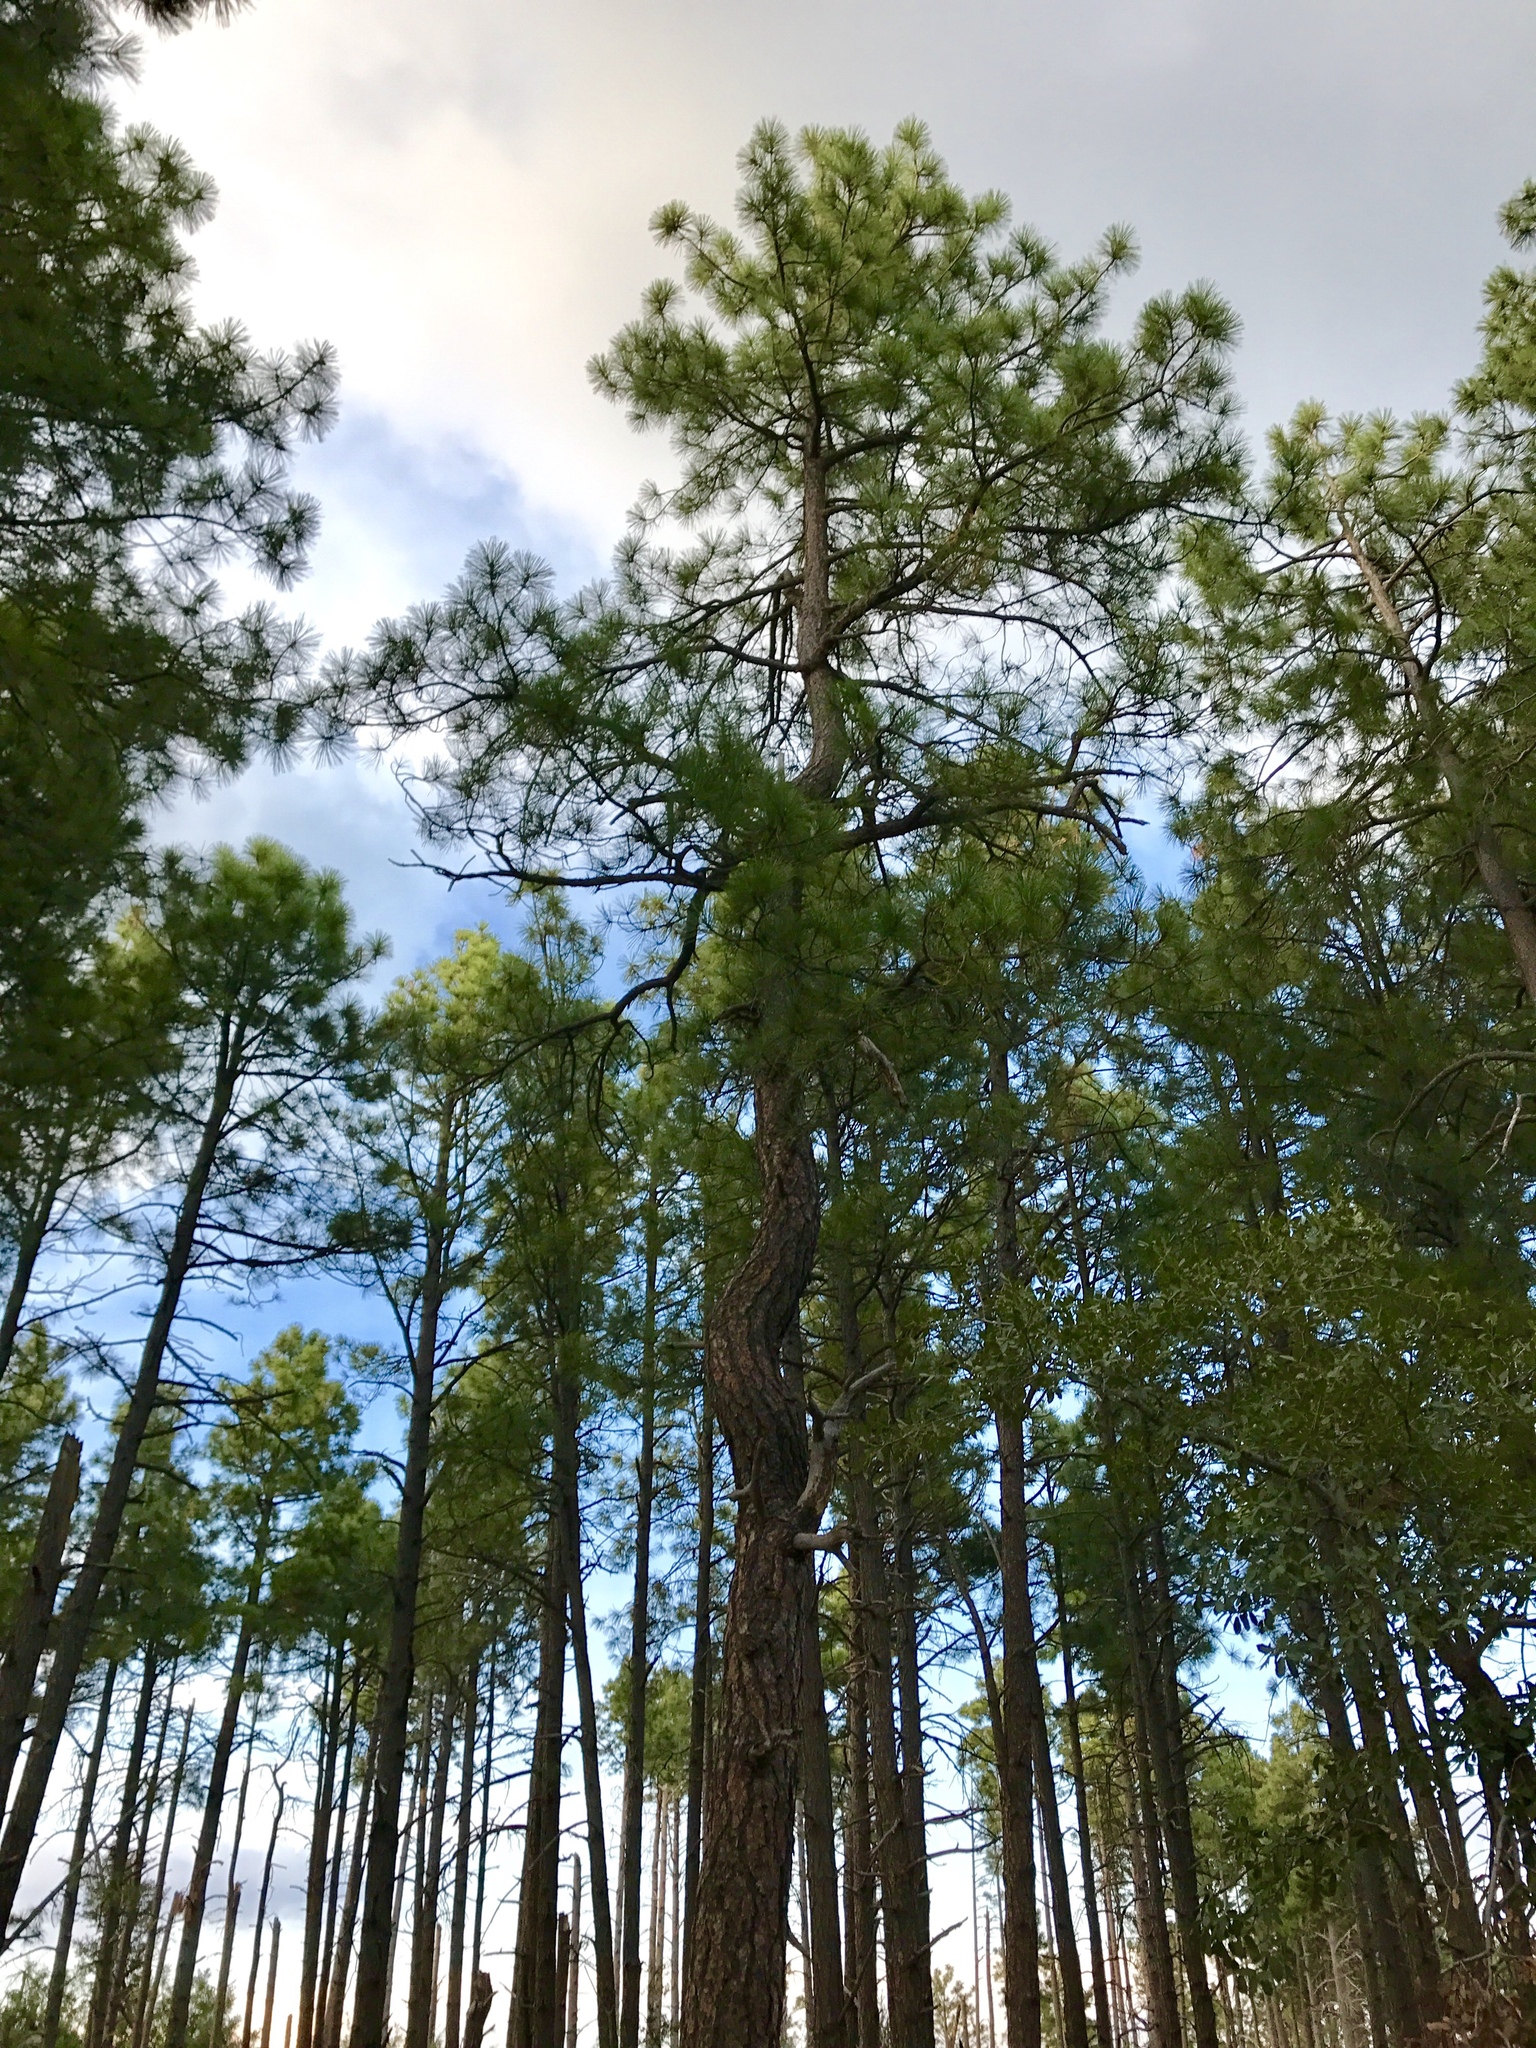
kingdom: Plantae
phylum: Tracheophyta
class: Pinopsida
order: Pinales
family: Pinaceae
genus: Pinus
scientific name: Pinus ponderosa
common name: Western yellow-pine
